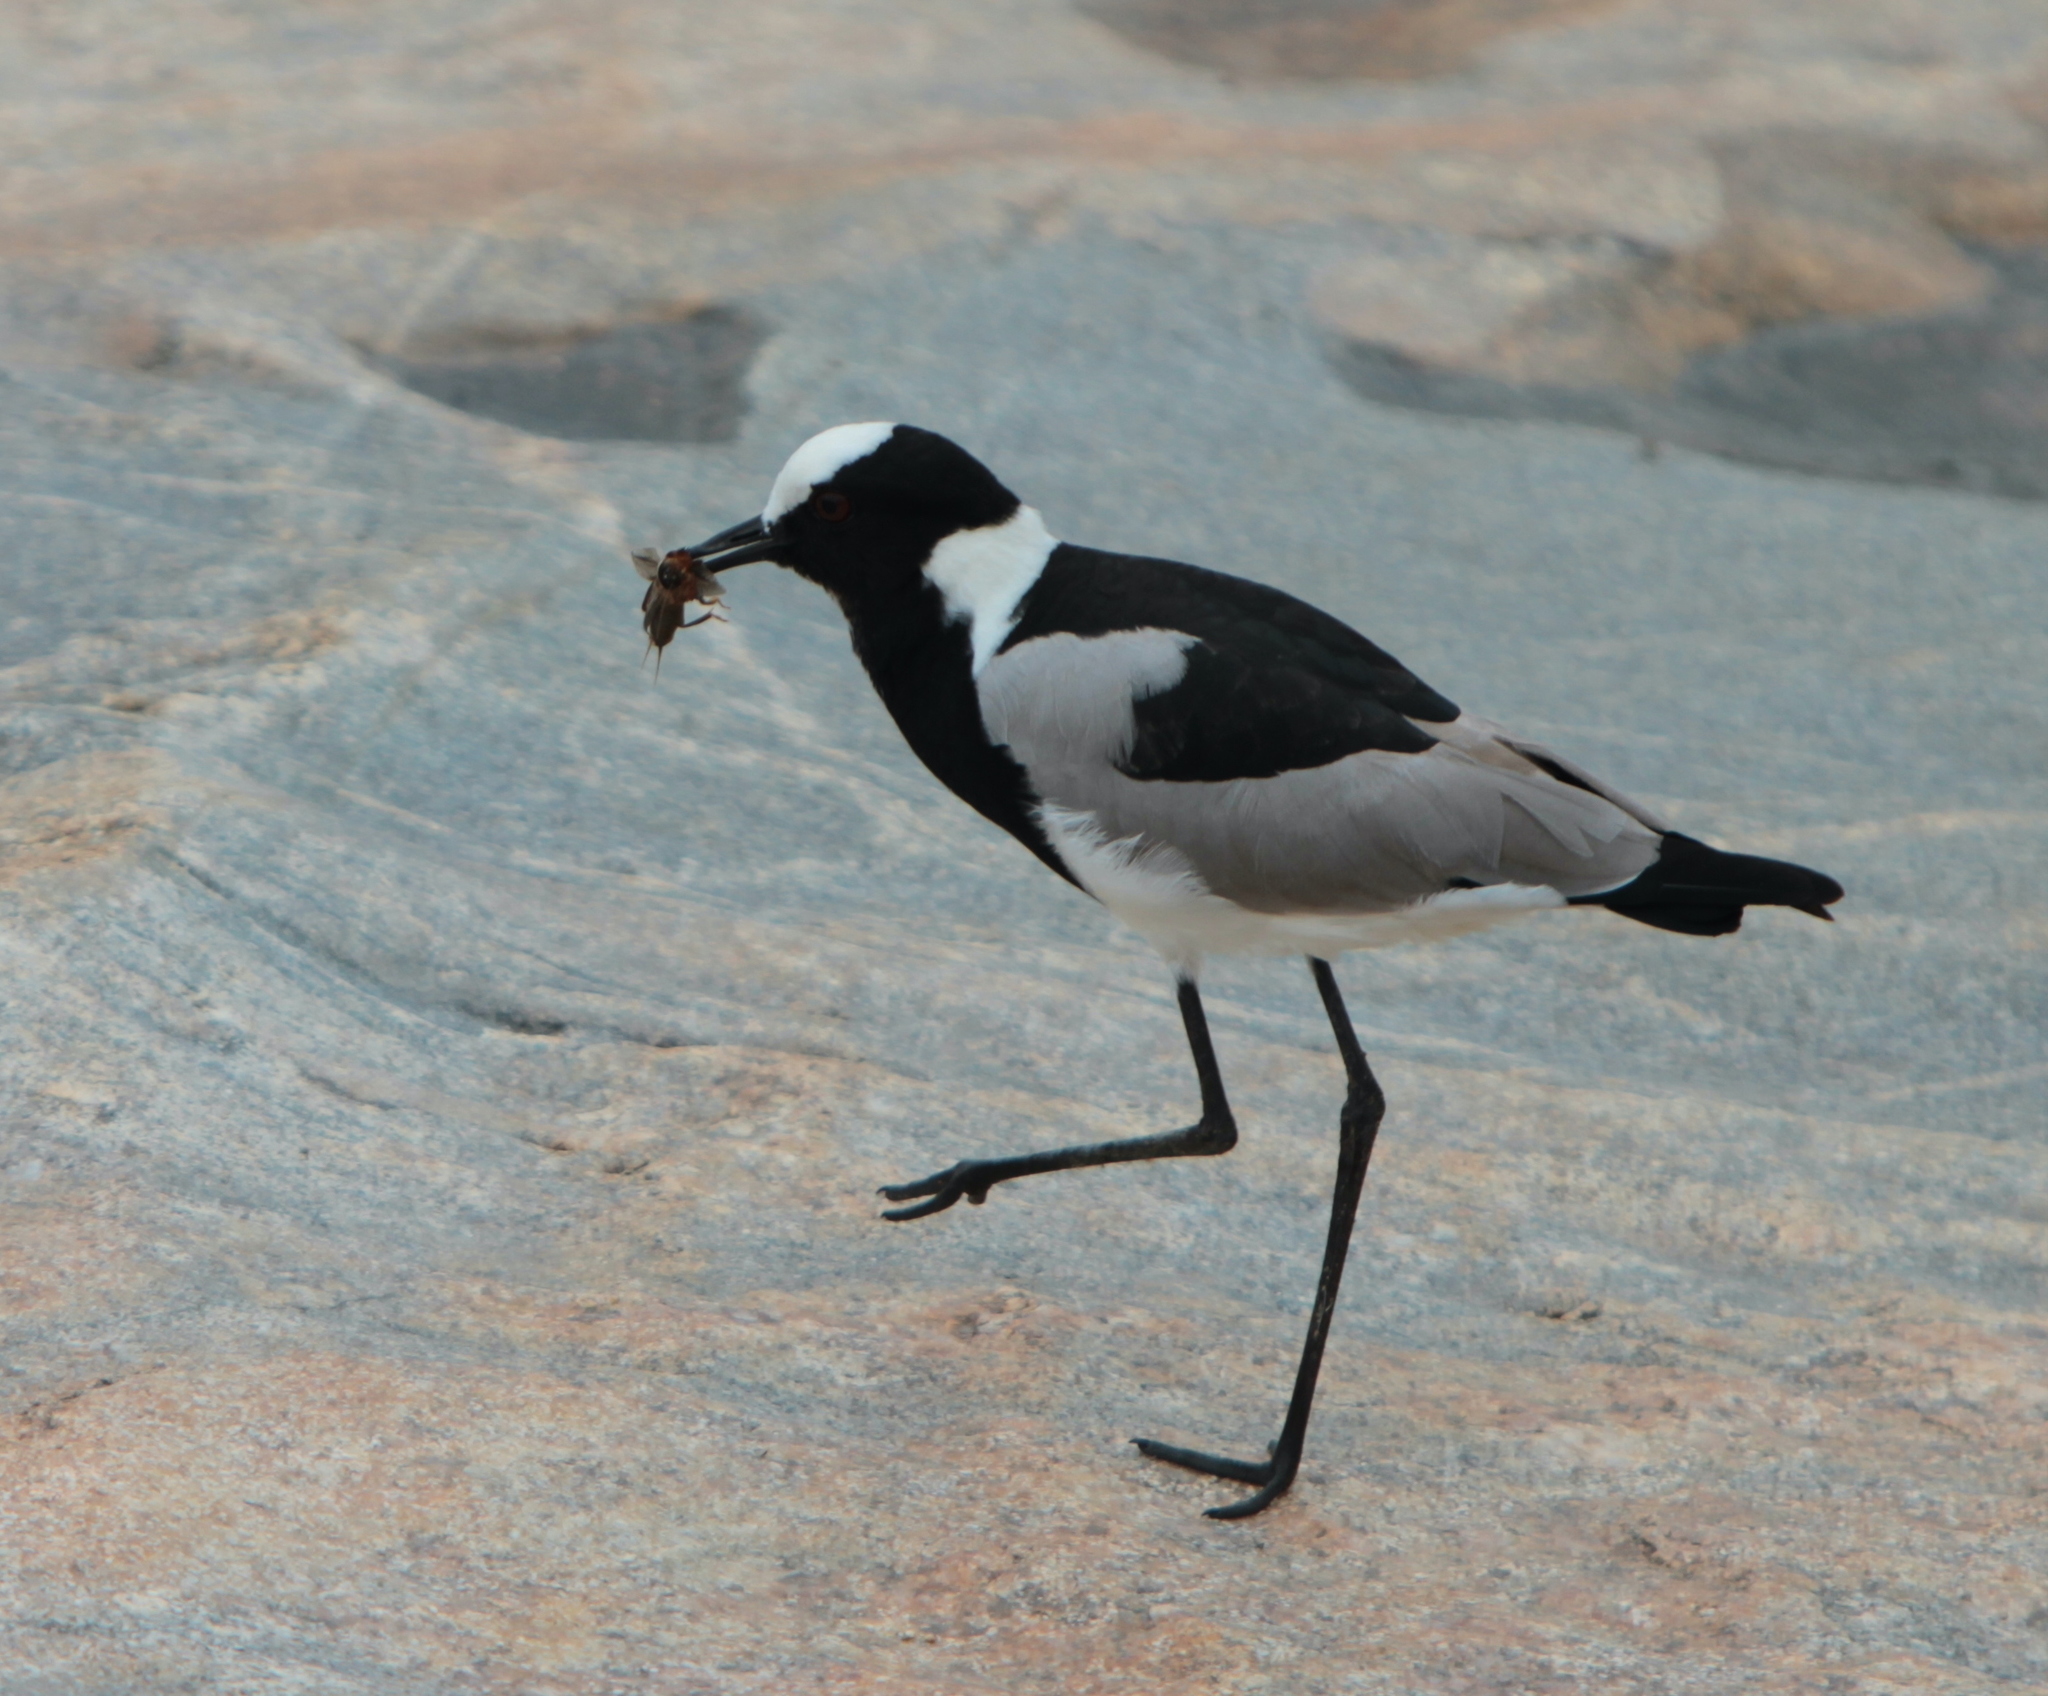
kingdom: Animalia
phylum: Chordata
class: Aves
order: Charadriiformes
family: Charadriidae
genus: Vanellus
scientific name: Vanellus armatus
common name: Blacksmith lapwing
